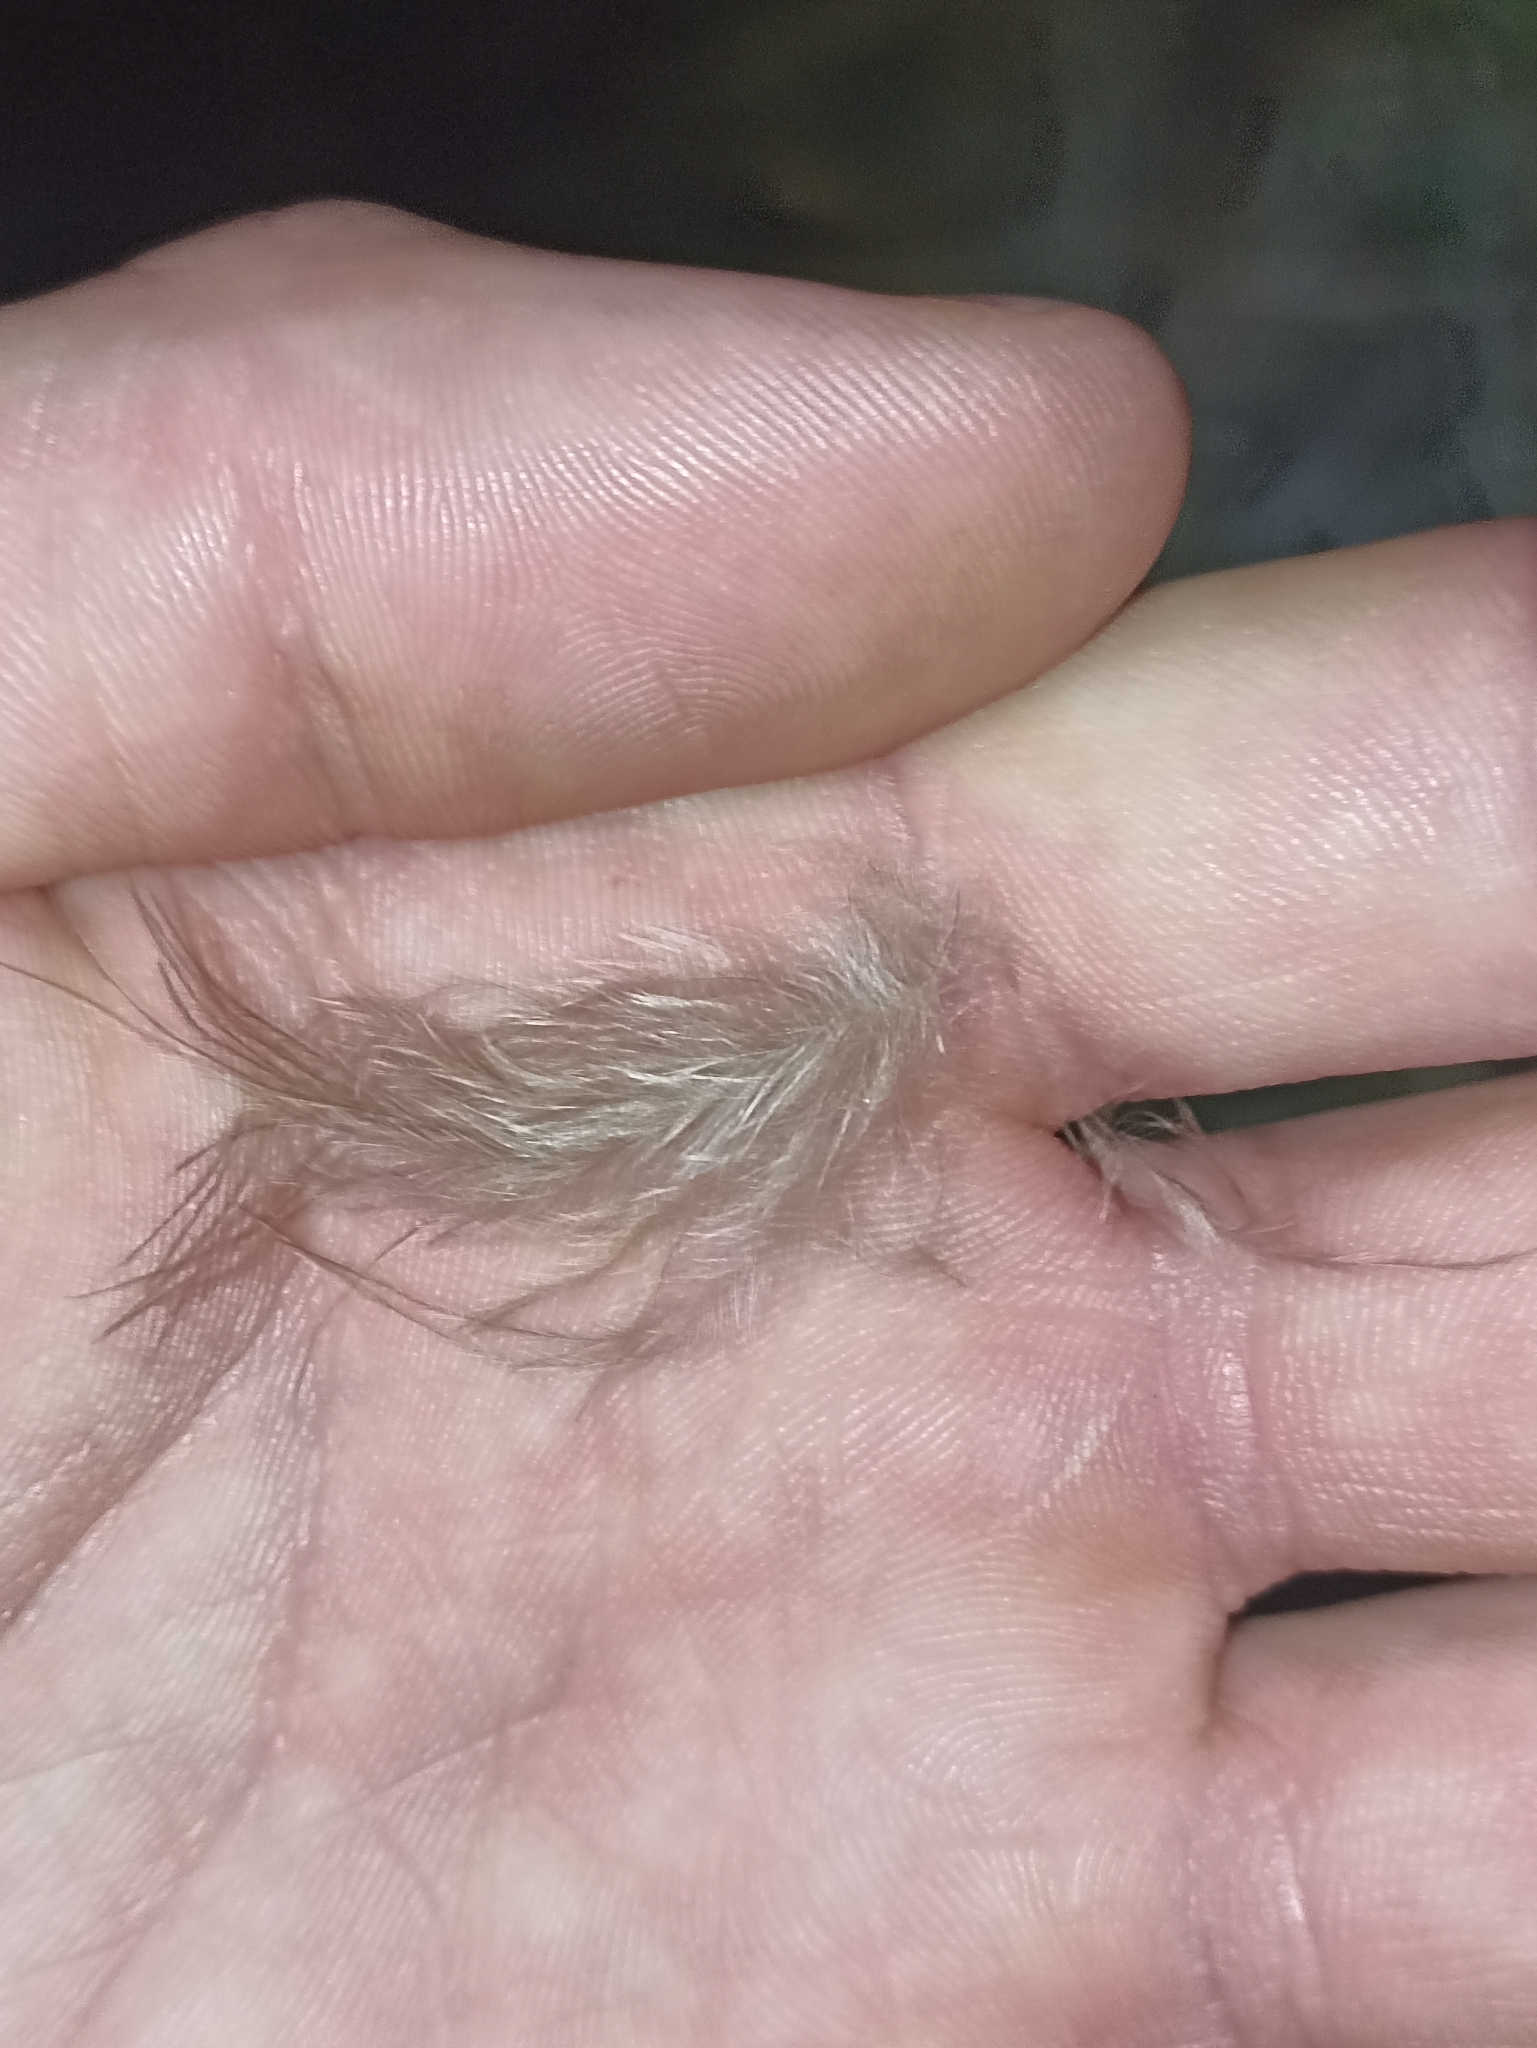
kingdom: Animalia
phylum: Chordata
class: Aves
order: Apterygiformes
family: Apterygidae
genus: Apteryx
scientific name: Apteryx owenii
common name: Little spotted kiwi
